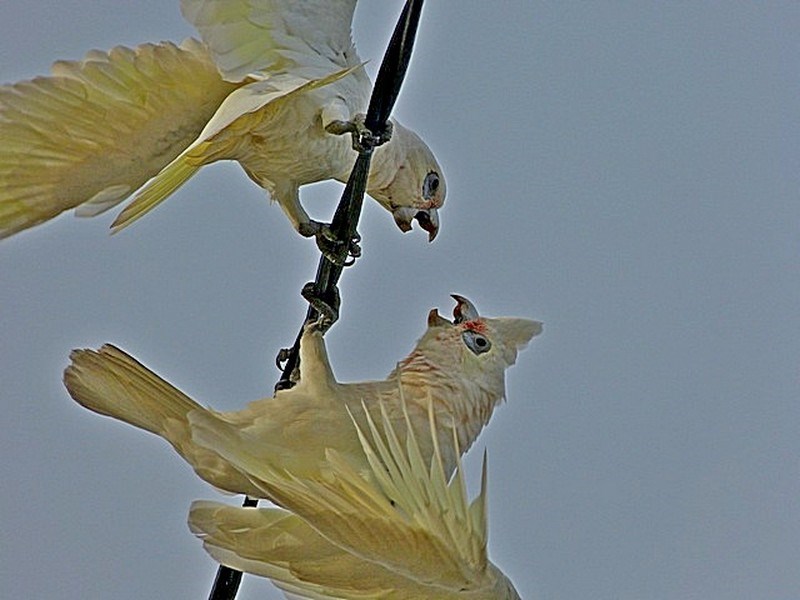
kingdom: Animalia
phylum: Chordata
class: Aves
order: Psittaciformes
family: Psittacidae
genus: Cacatua
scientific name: Cacatua sanguinea
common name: Little corella
